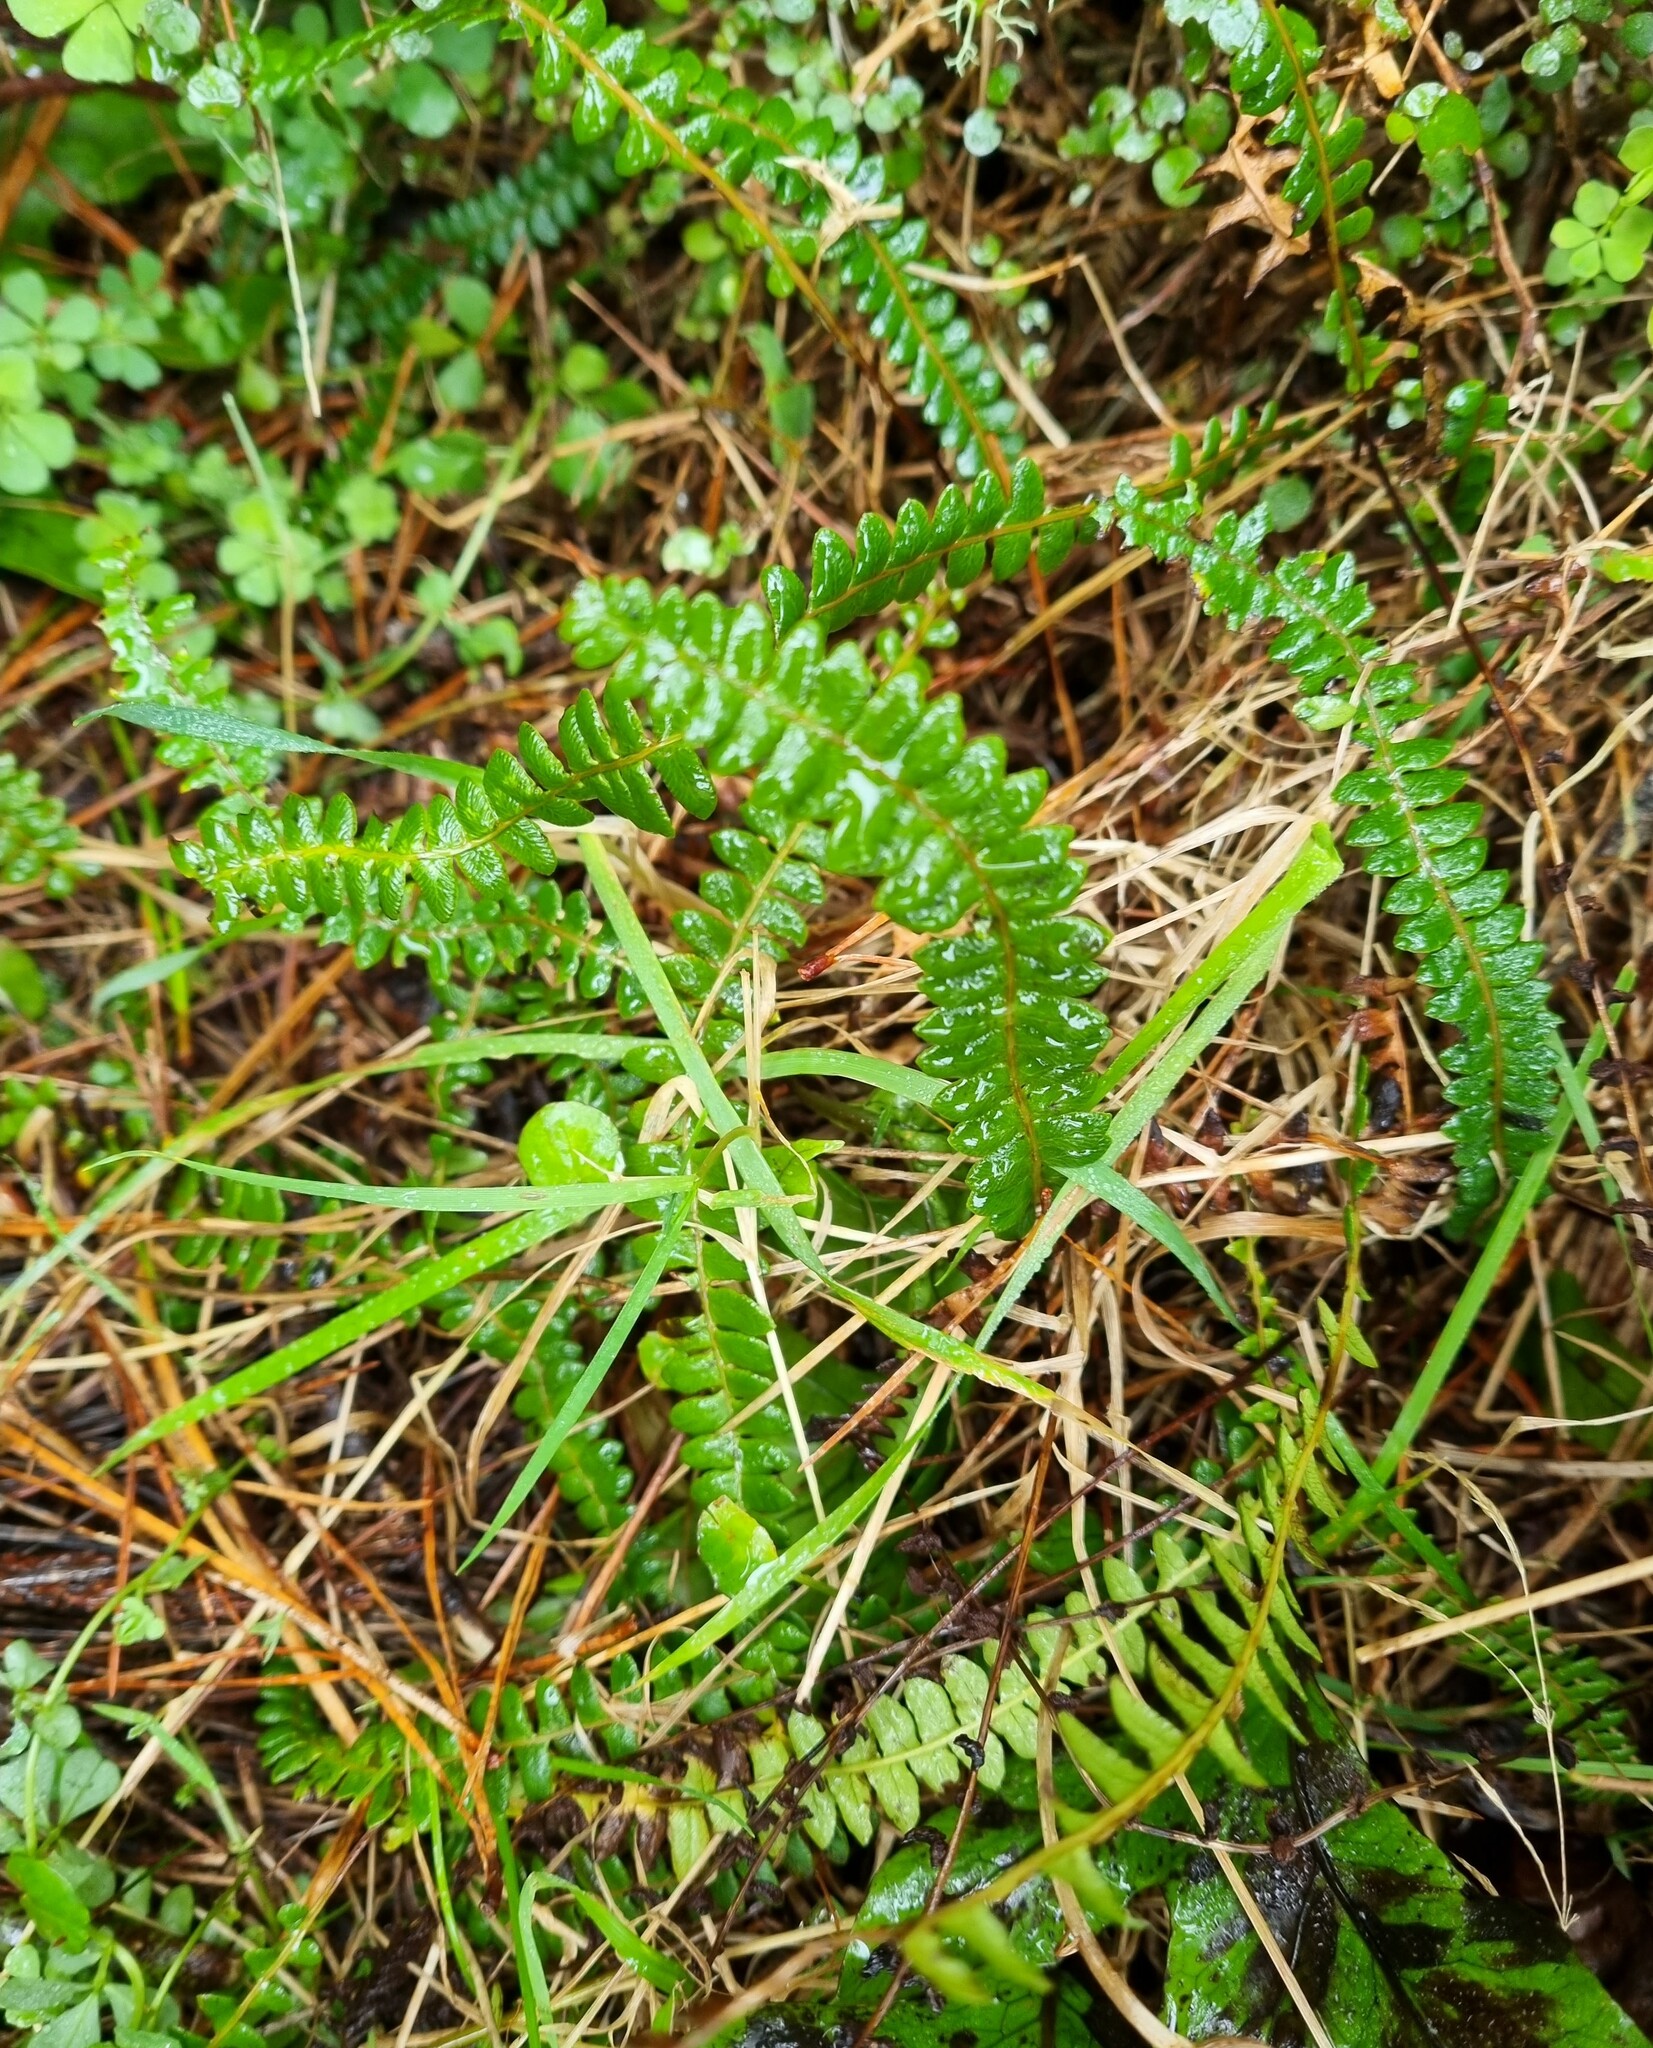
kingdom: Plantae
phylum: Tracheophyta
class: Polypodiopsida
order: Polypodiales
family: Blechnaceae
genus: Austroblechnum
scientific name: Austroblechnum penna-marina
